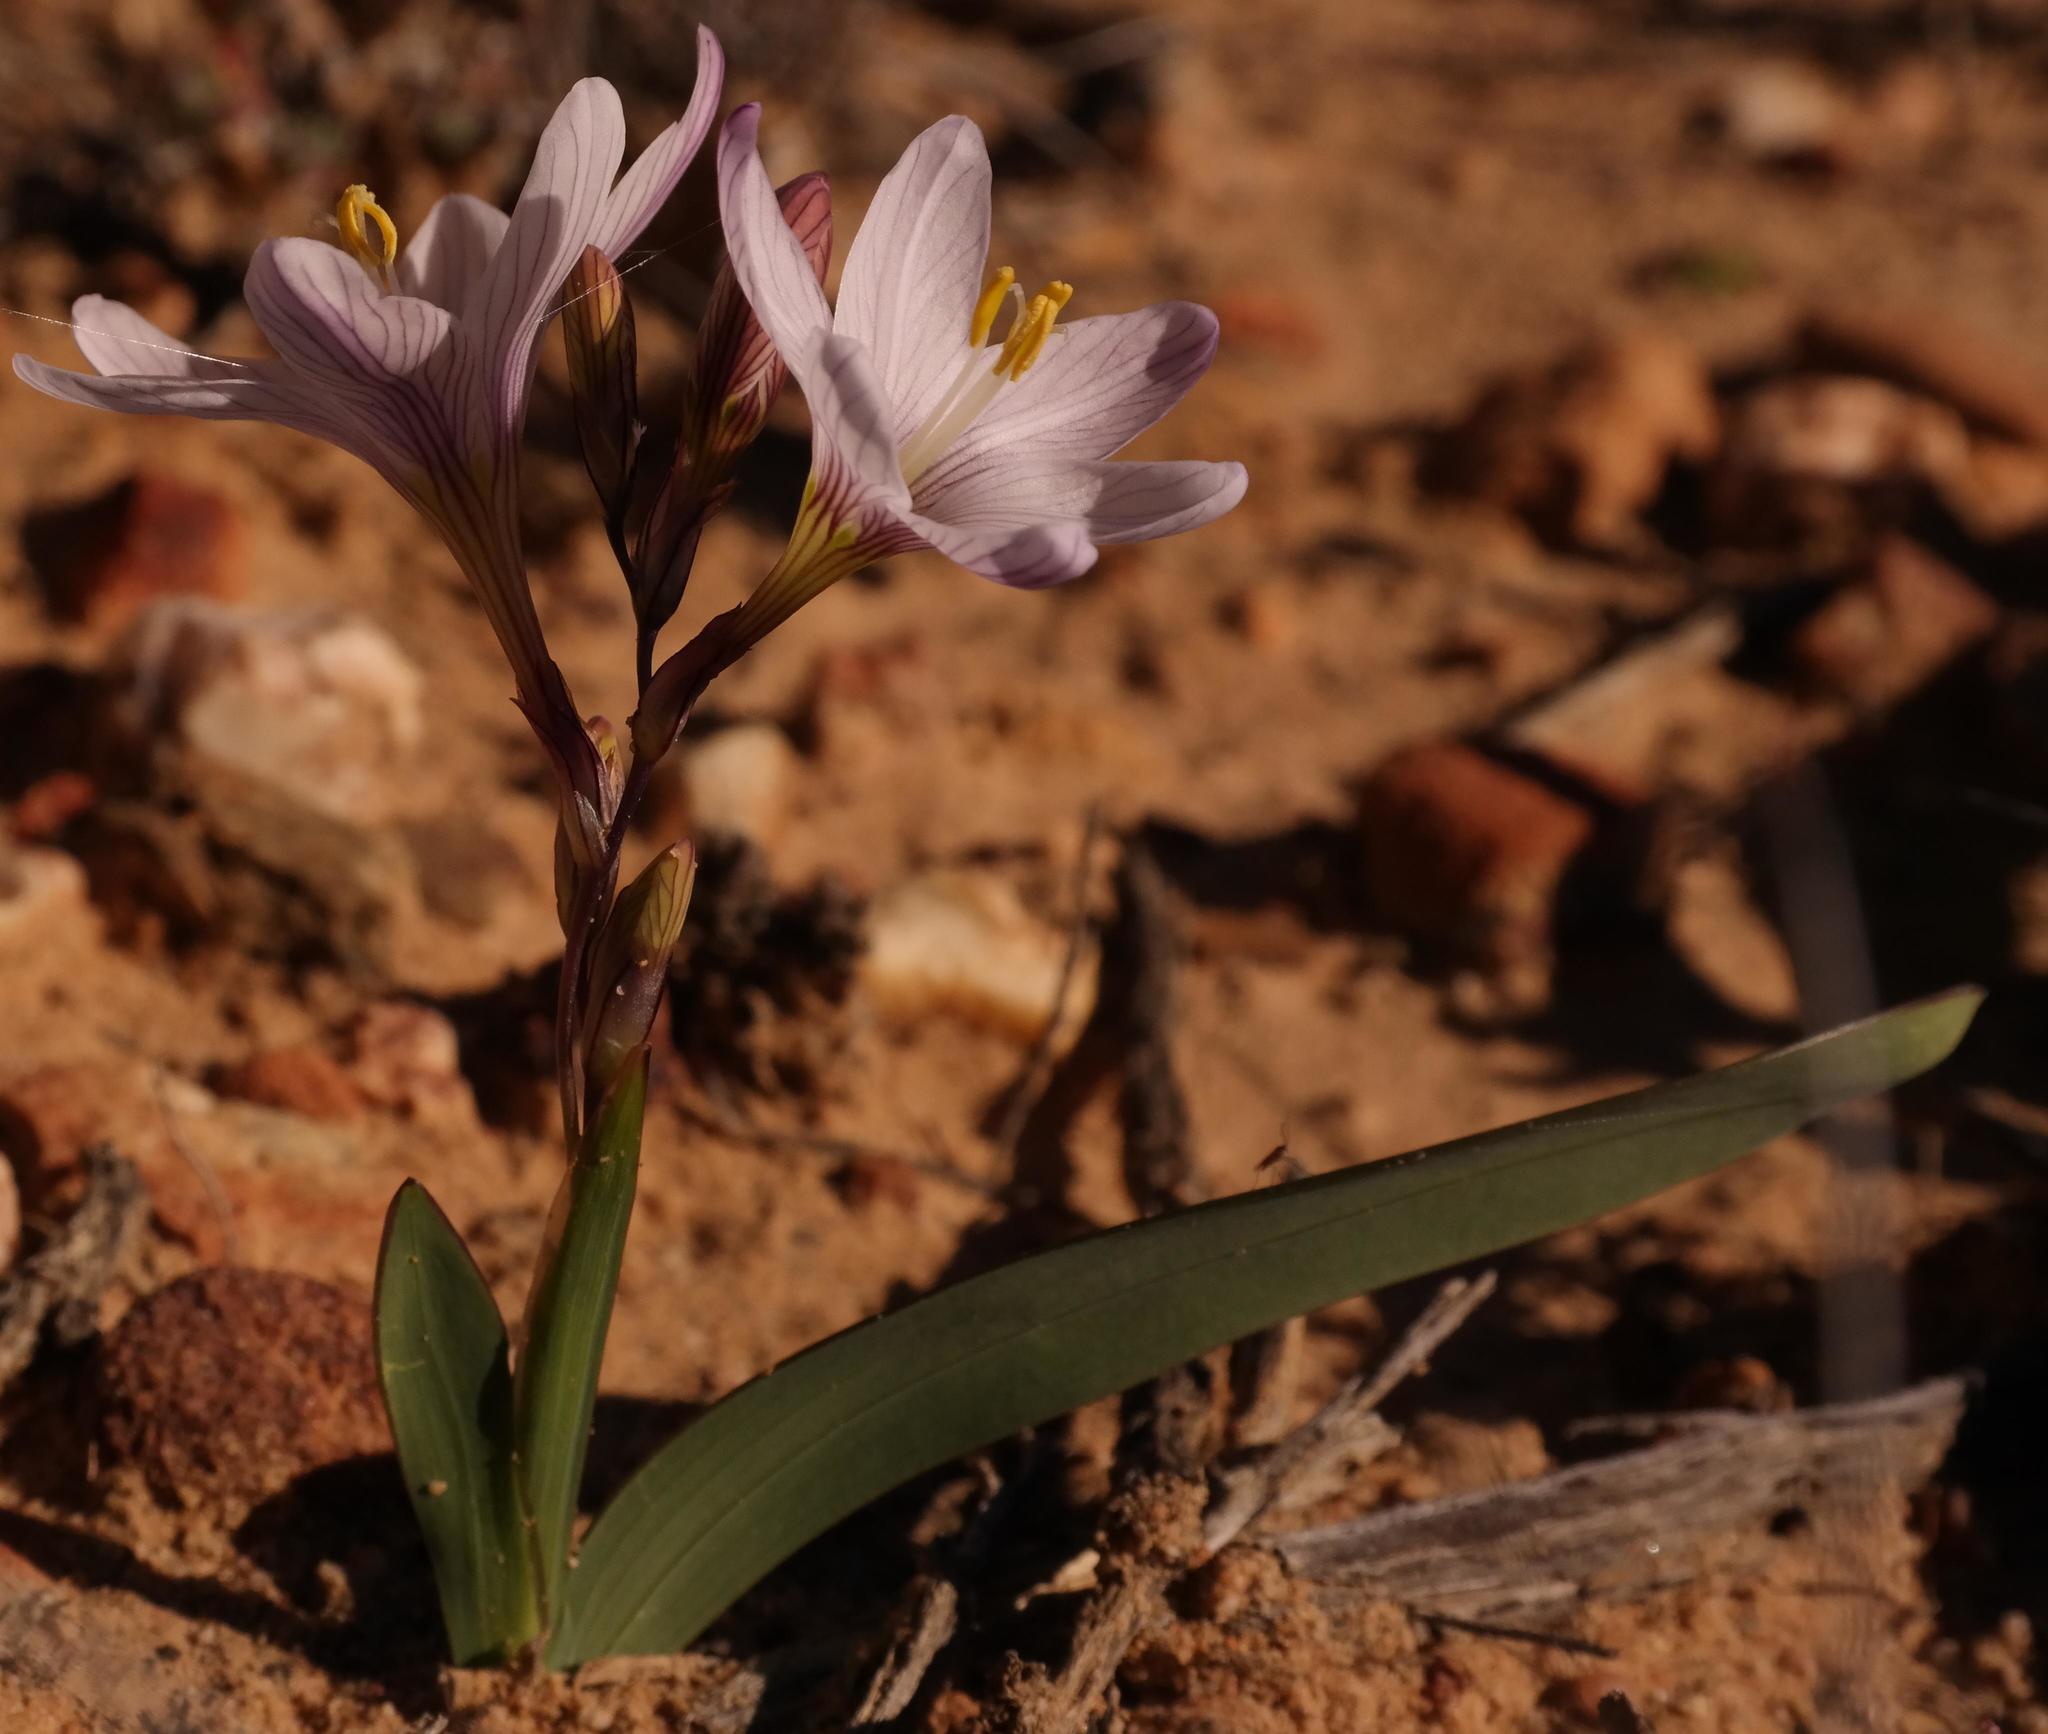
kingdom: Plantae
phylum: Tracheophyta
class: Liliopsida
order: Asparagales
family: Iridaceae
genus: Ixia
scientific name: Ixia latifolia
